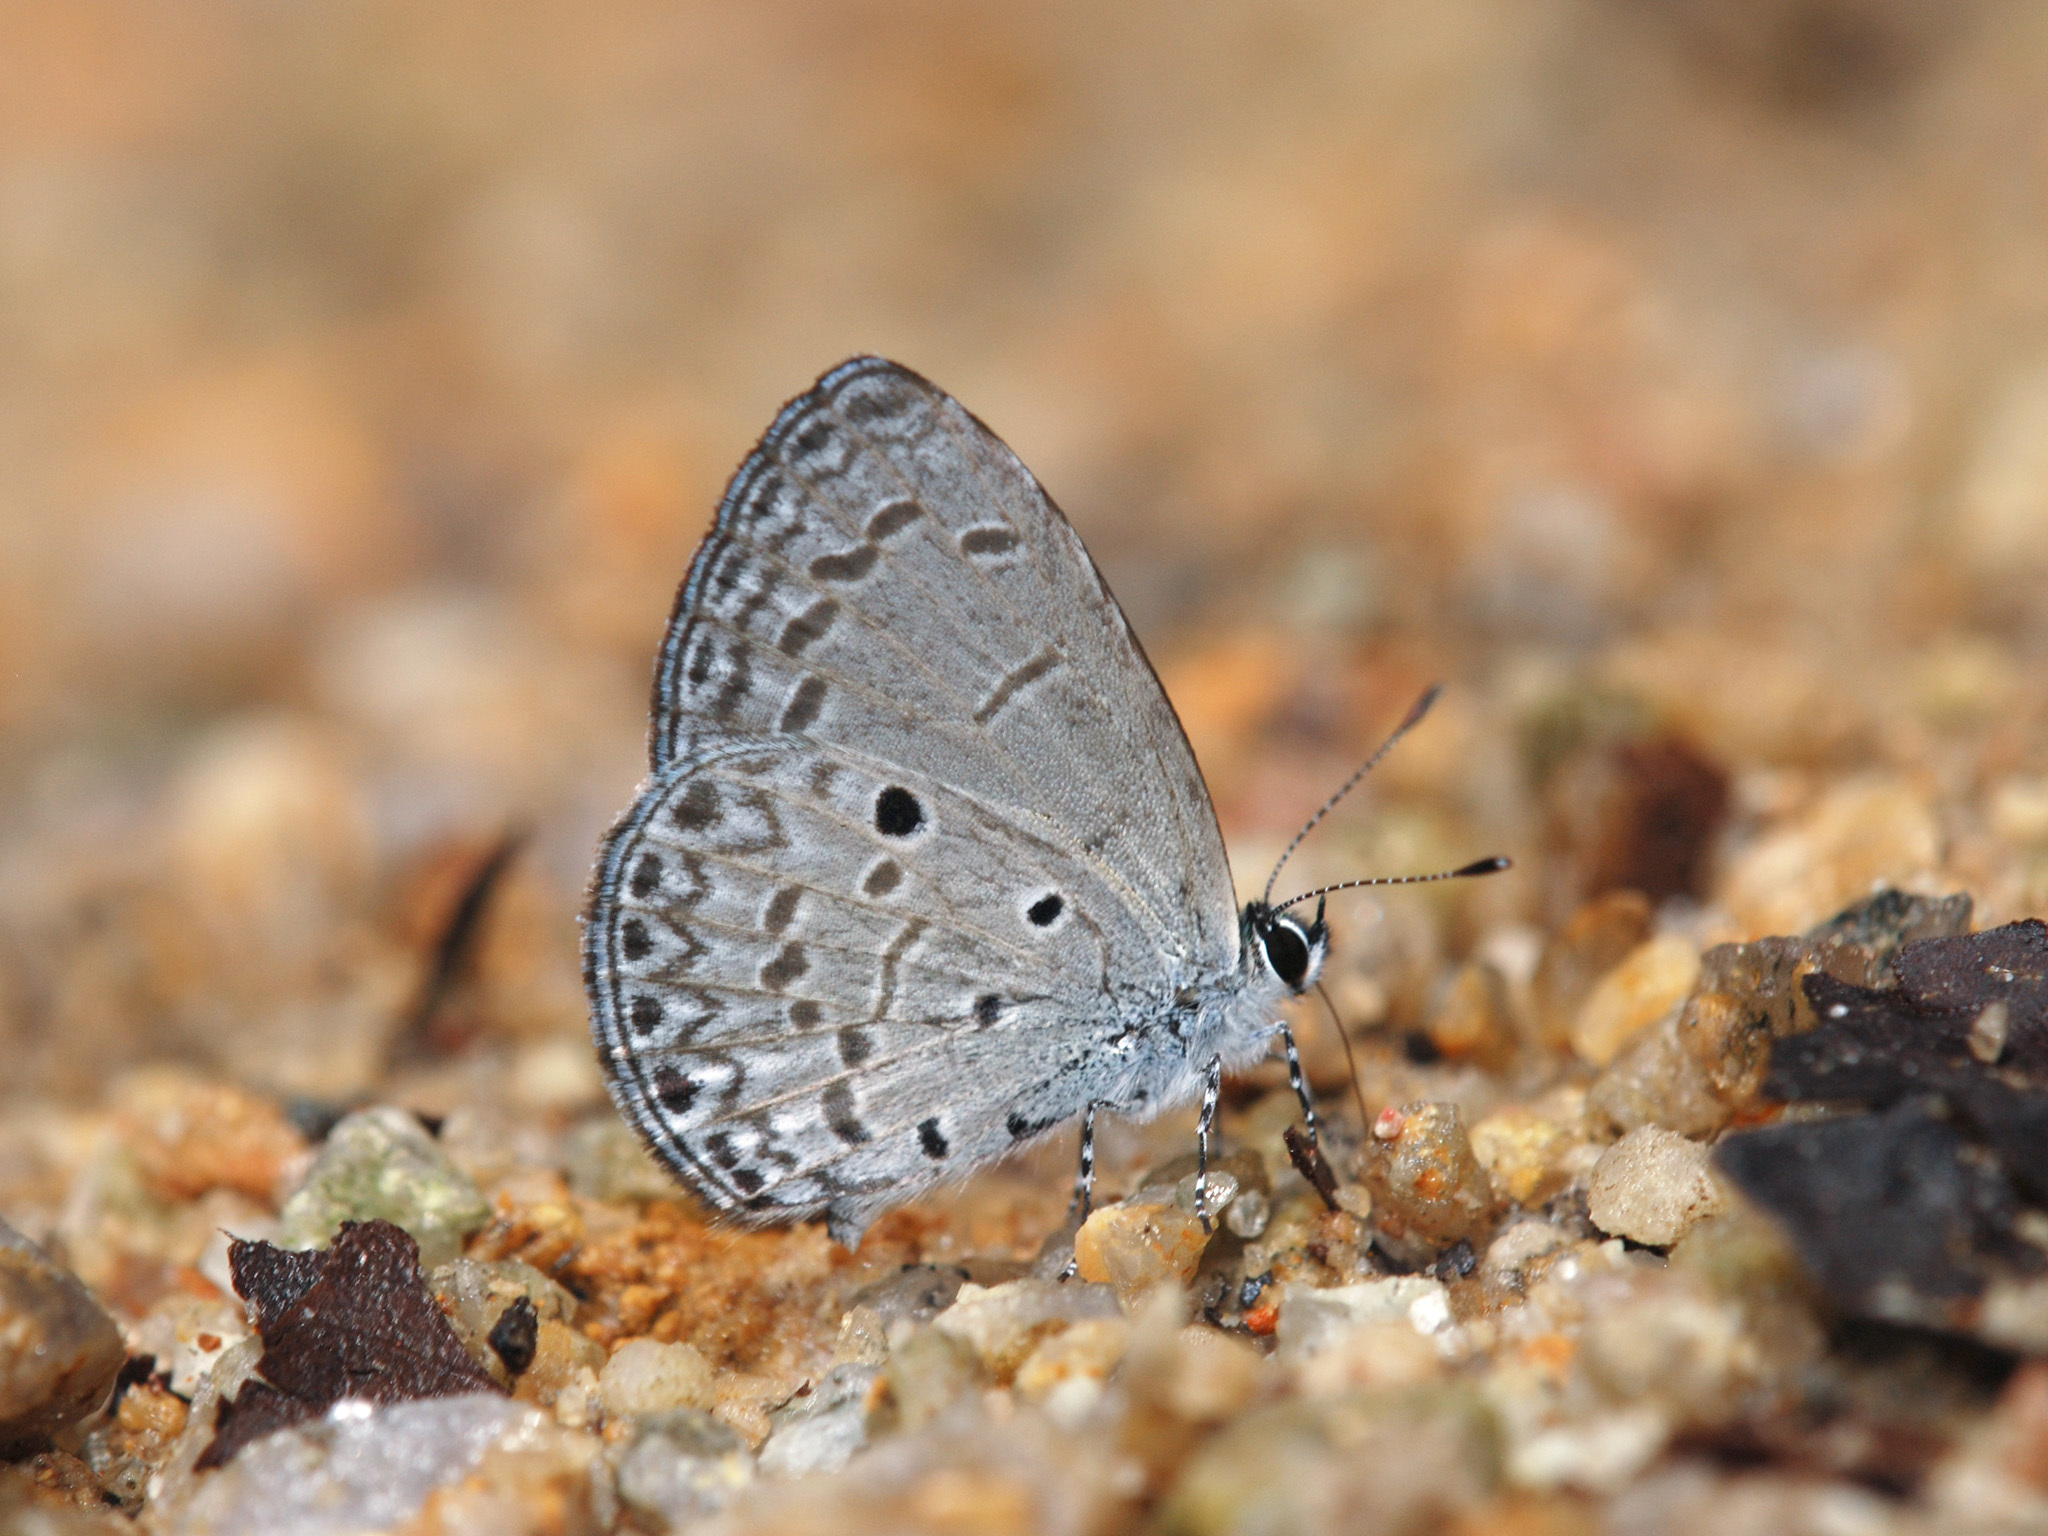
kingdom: Animalia
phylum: Arthropoda
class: Insecta
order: Lepidoptera
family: Lycaenidae
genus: Celastrina
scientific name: Celastrina lavendularis
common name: Plain hedge blue
